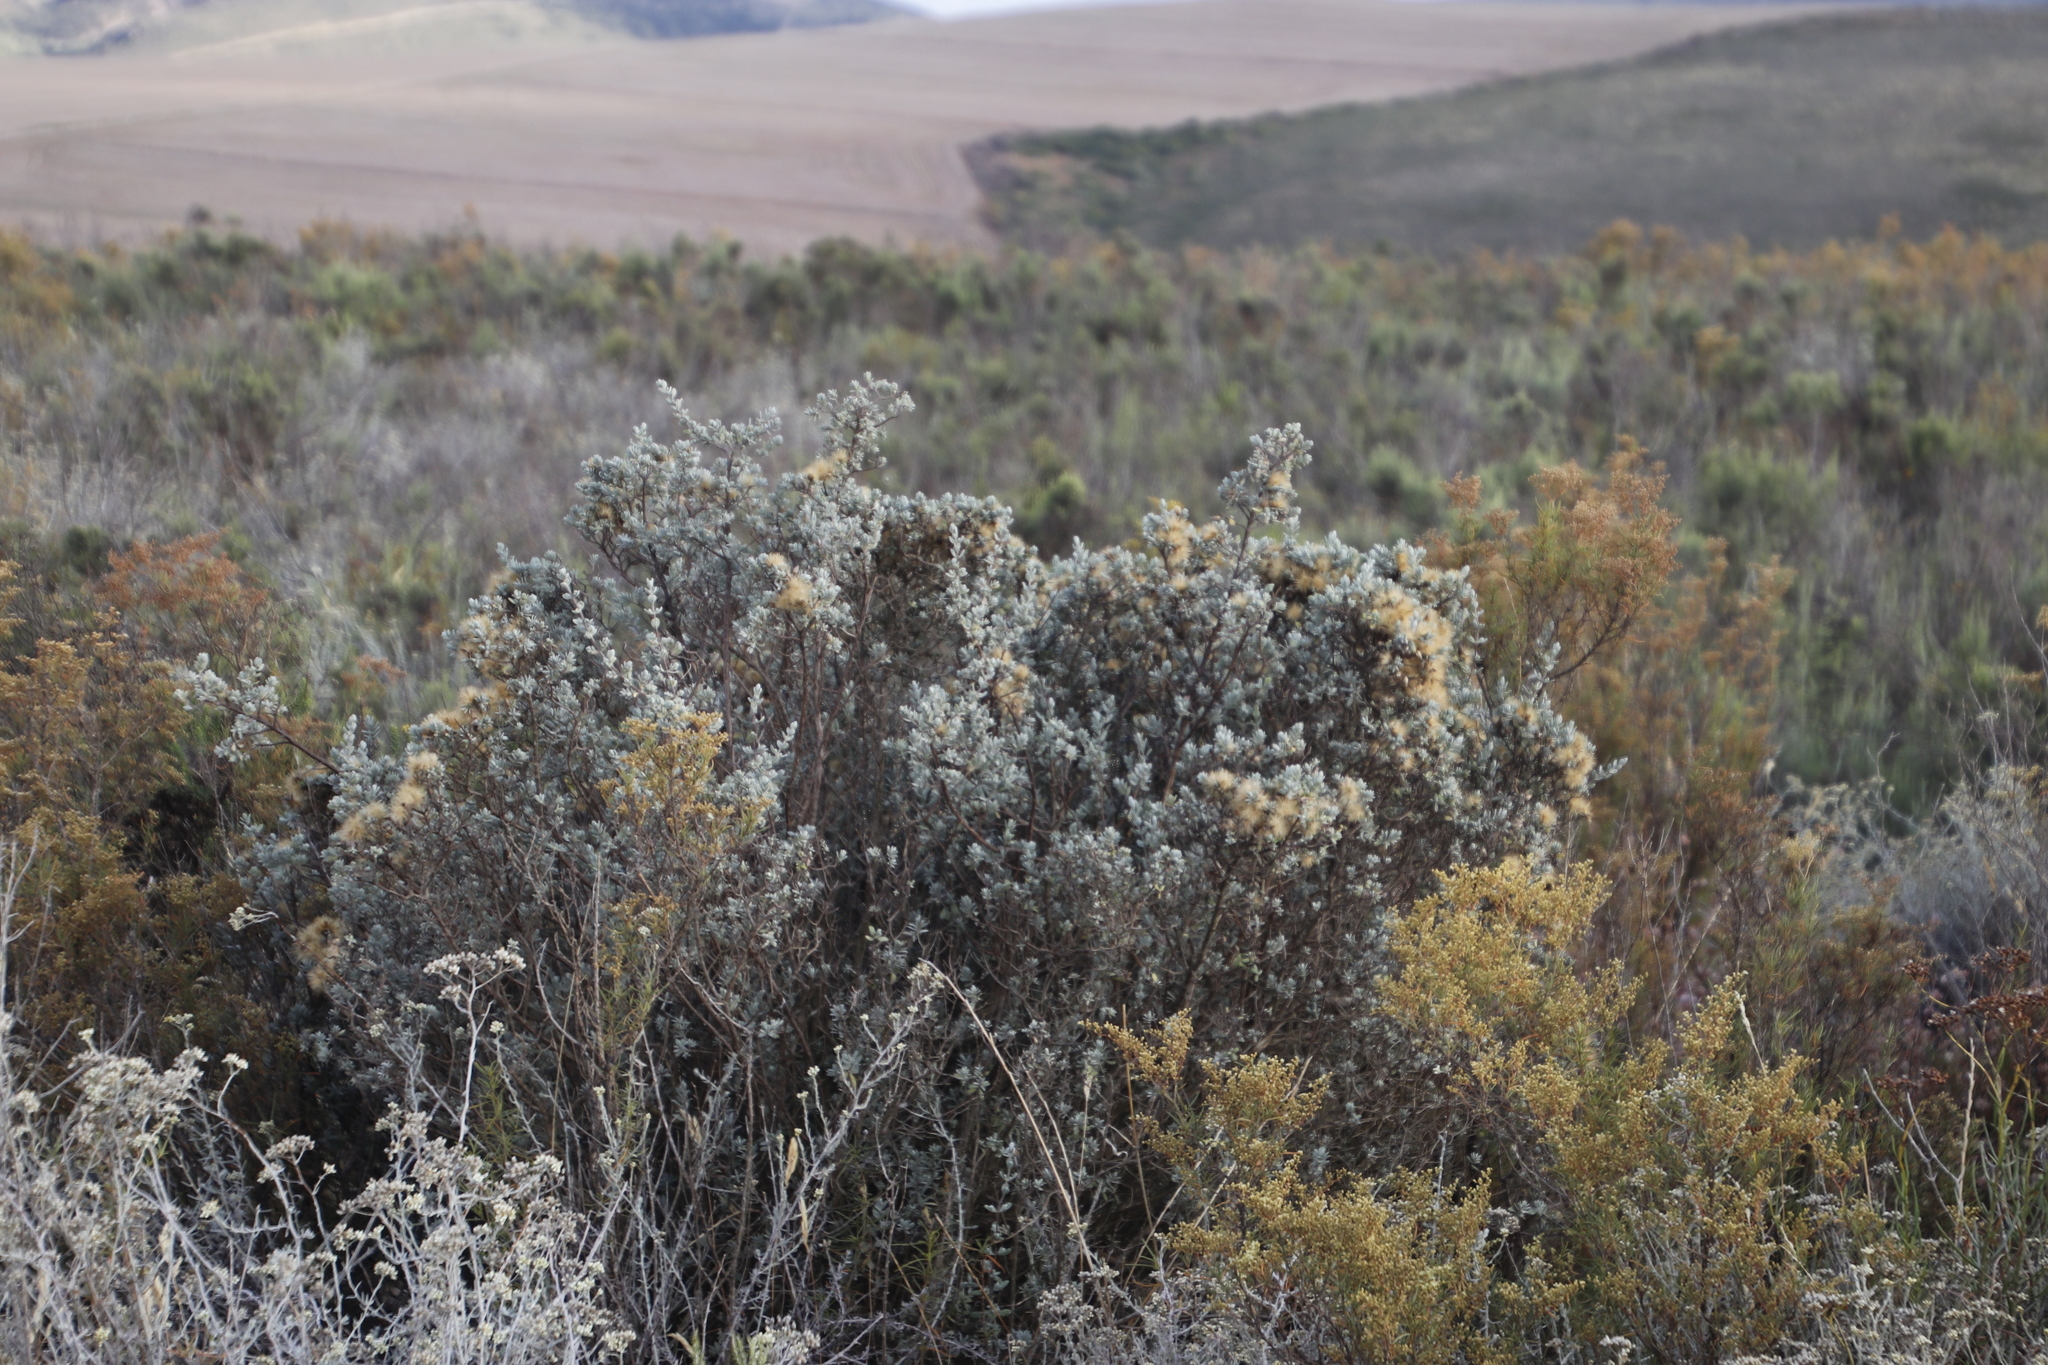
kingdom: Plantae
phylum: Tracheophyta
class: Magnoliopsida
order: Asterales
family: Asteraceae
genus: Pteronia
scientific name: Pteronia incana
